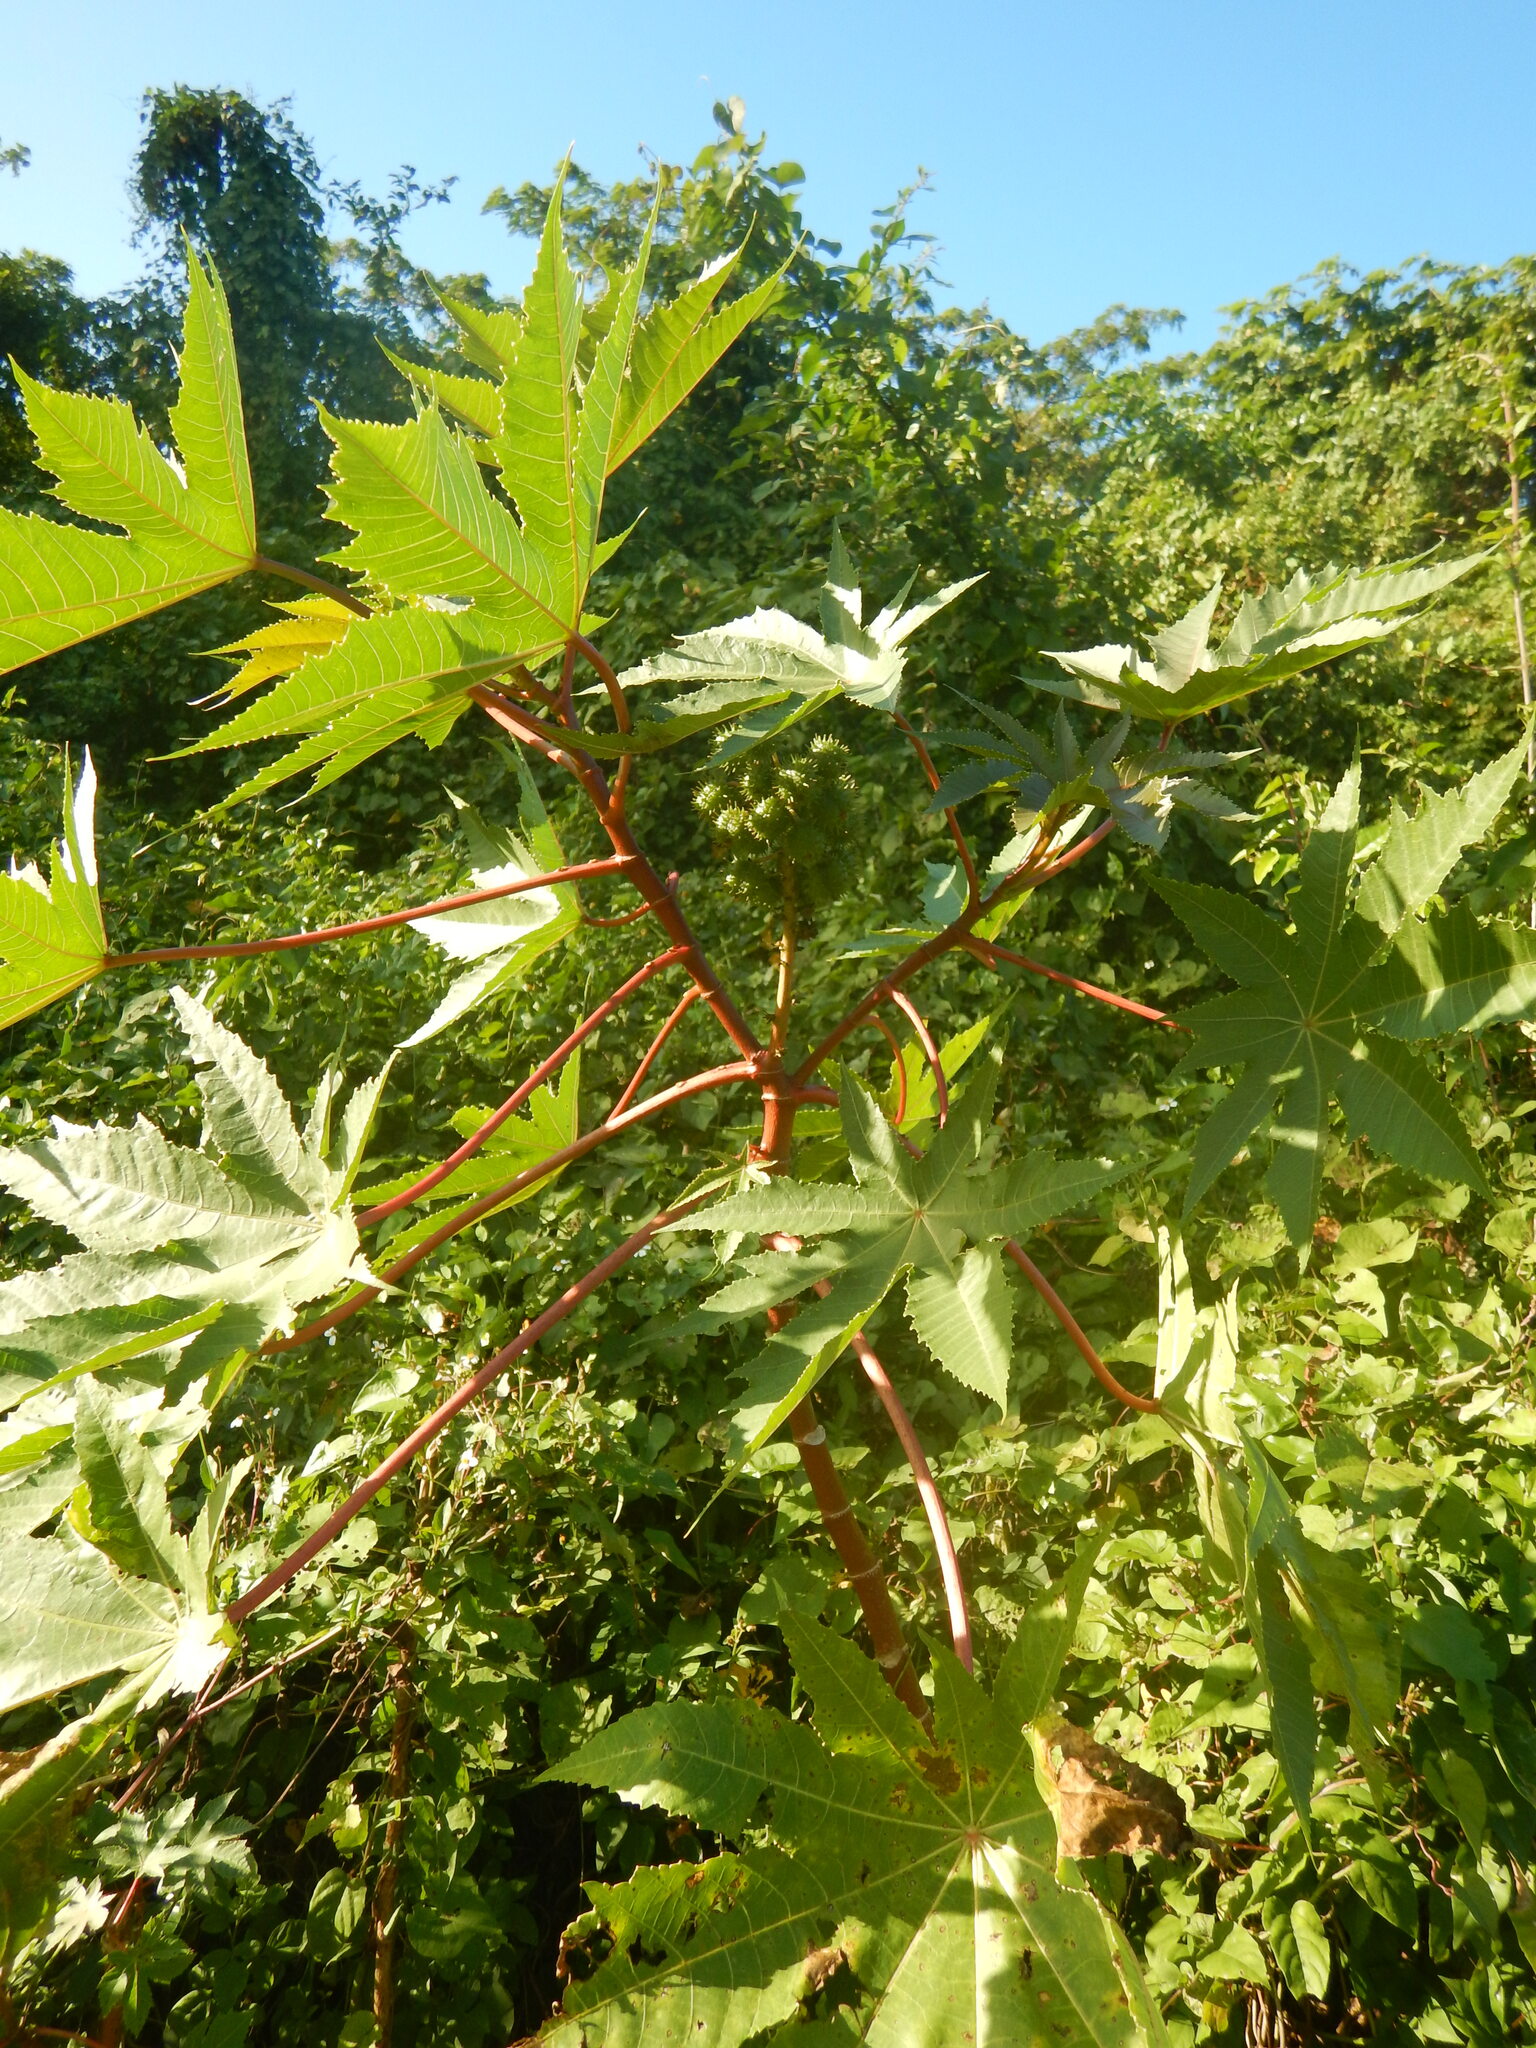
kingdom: Plantae
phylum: Tracheophyta
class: Magnoliopsida
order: Malpighiales
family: Euphorbiaceae
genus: Ricinus
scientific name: Ricinus communis
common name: Castor-oil-plant
